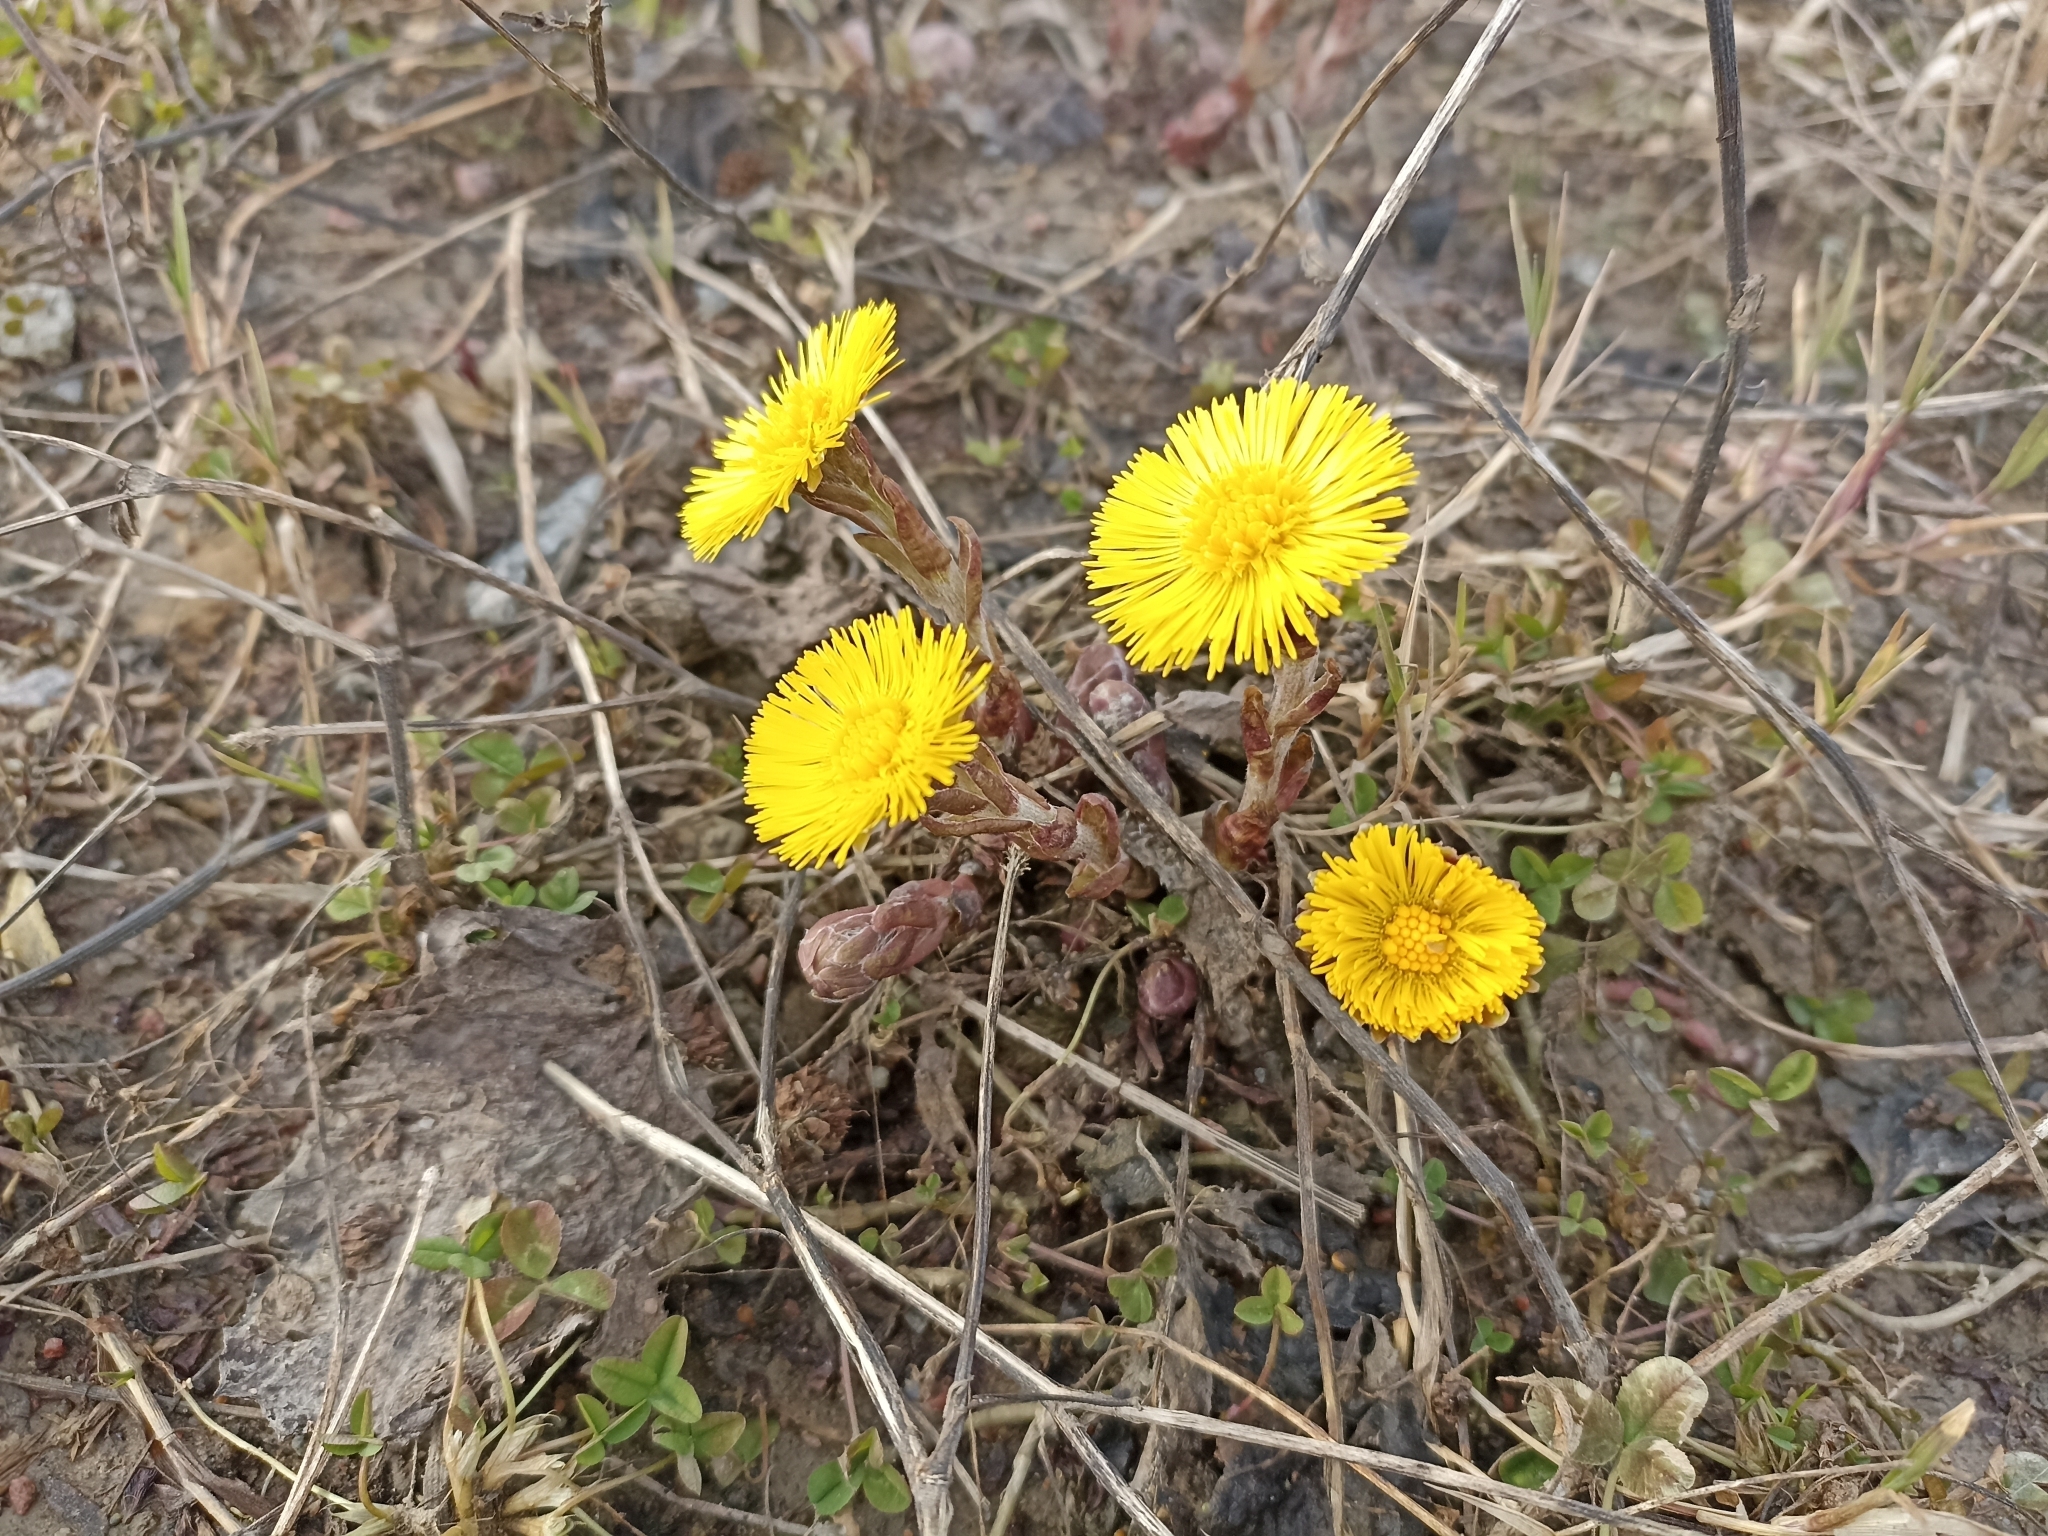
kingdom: Plantae
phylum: Tracheophyta
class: Magnoliopsida
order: Asterales
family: Asteraceae
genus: Tussilago
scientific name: Tussilago farfara
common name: Coltsfoot
